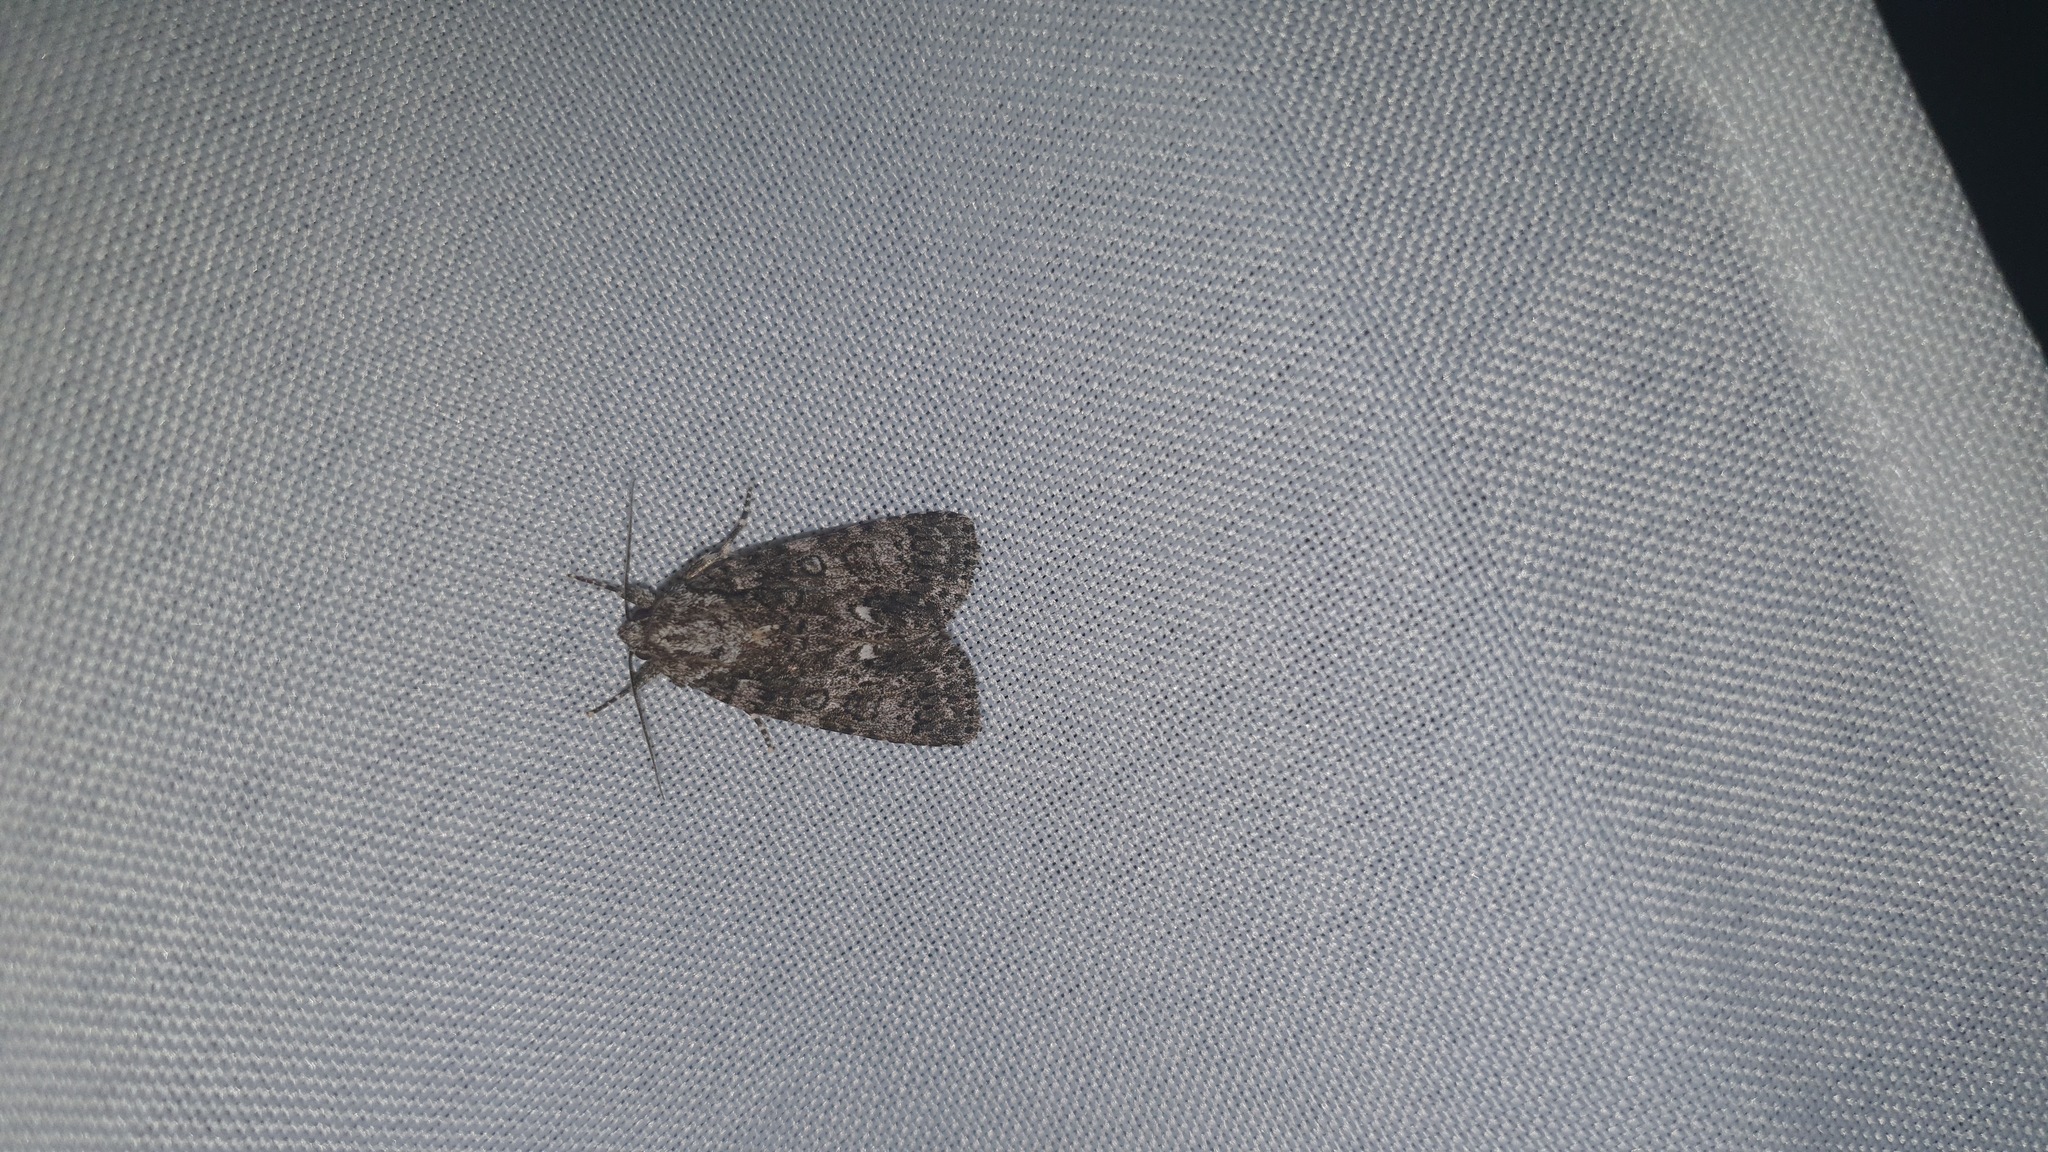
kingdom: Animalia
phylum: Arthropoda
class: Insecta
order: Lepidoptera
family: Noctuidae
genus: Acronicta
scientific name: Acronicta rumicis
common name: Knot grass
